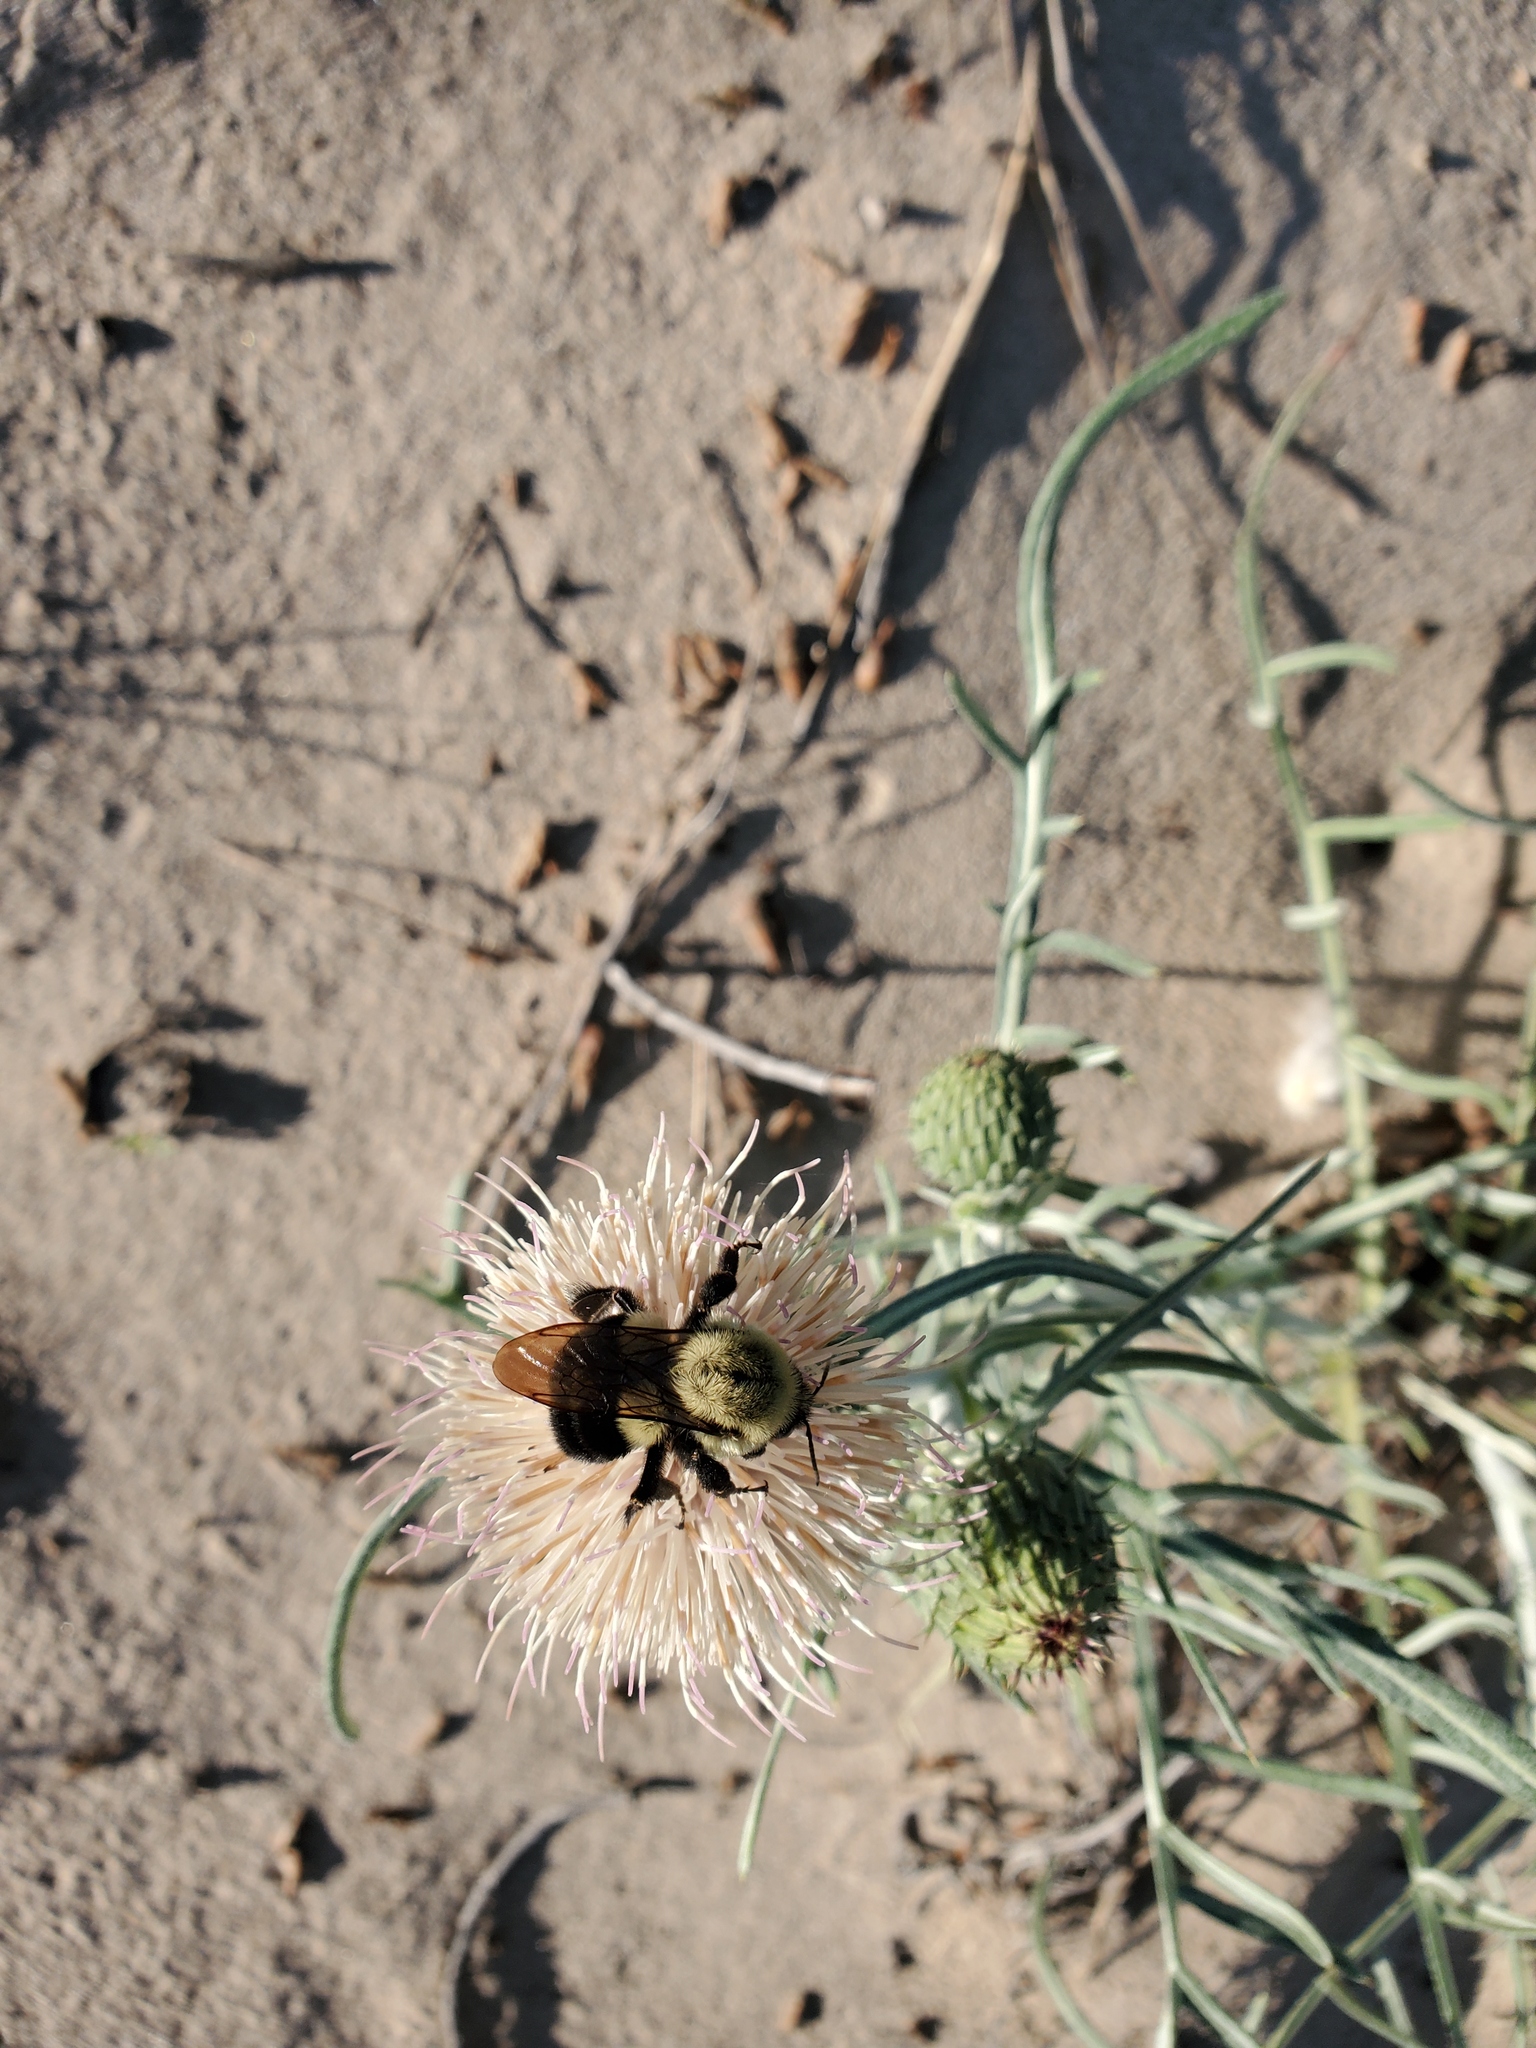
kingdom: Animalia
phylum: Arthropoda
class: Insecta
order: Hymenoptera
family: Apidae
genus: Bombus
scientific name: Bombus impatiens
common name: Common eastern bumble bee
